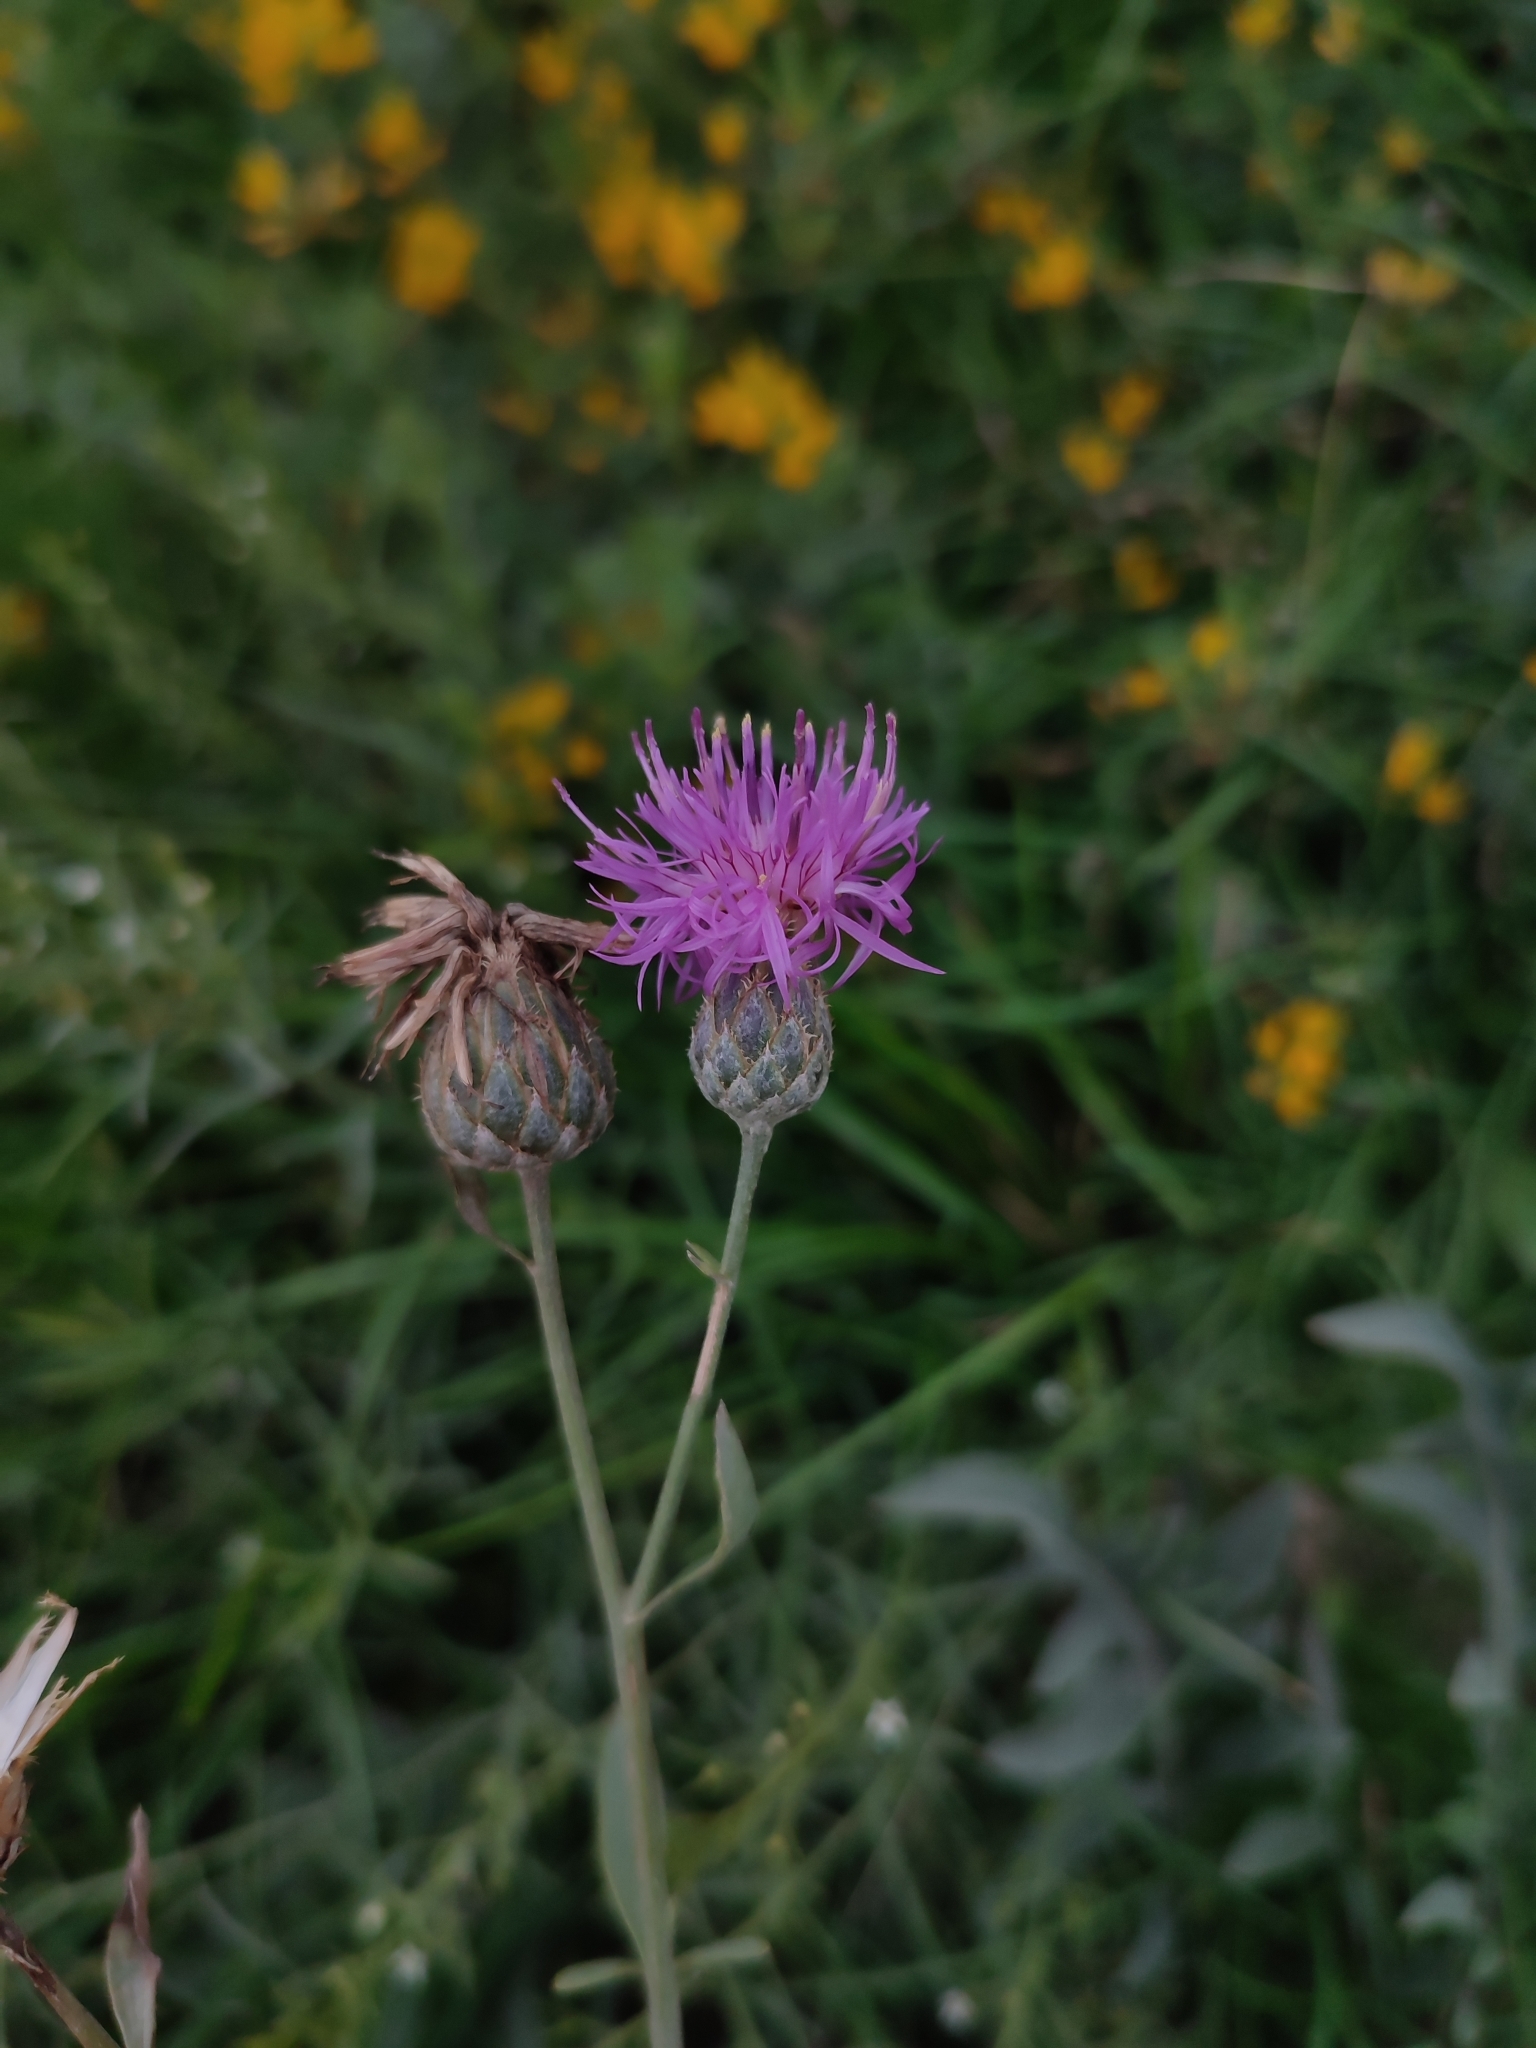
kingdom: Plantae
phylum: Tracheophyta
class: Magnoliopsida
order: Asterales
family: Asteraceae
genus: Centaurea
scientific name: Centaurea adpressa
